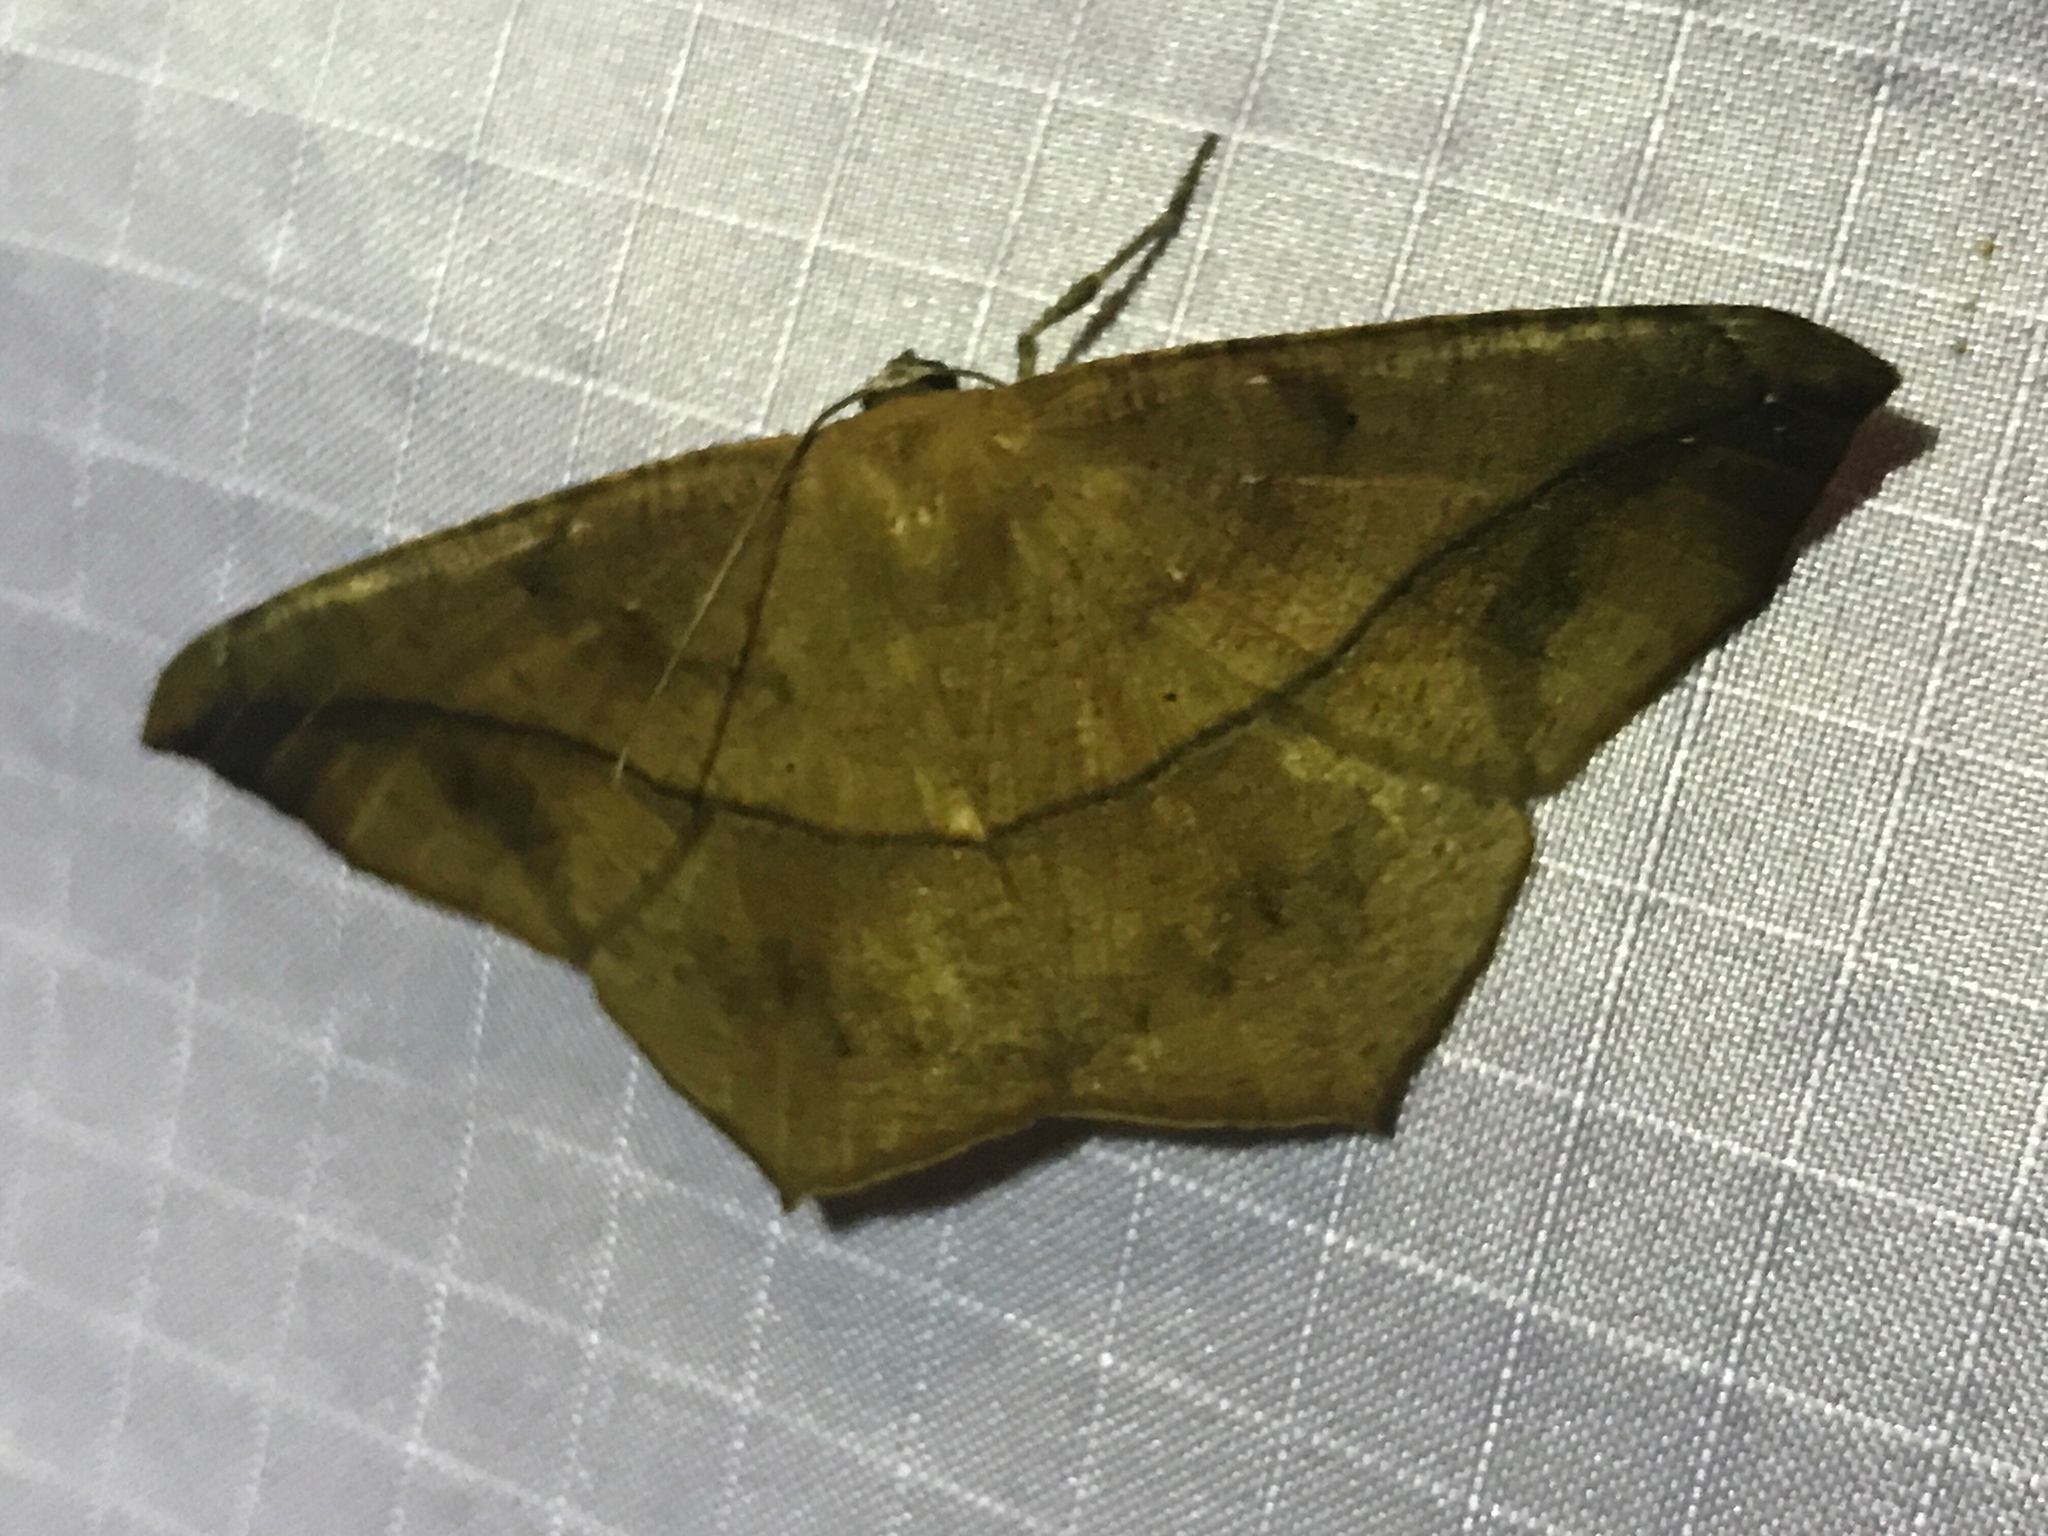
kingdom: Animalia
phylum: Arthropoda
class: Insecta
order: Lepidoptera
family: Geometridae
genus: Prochoerodes
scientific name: Prochoerodes lineola
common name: Large maple spanworm
